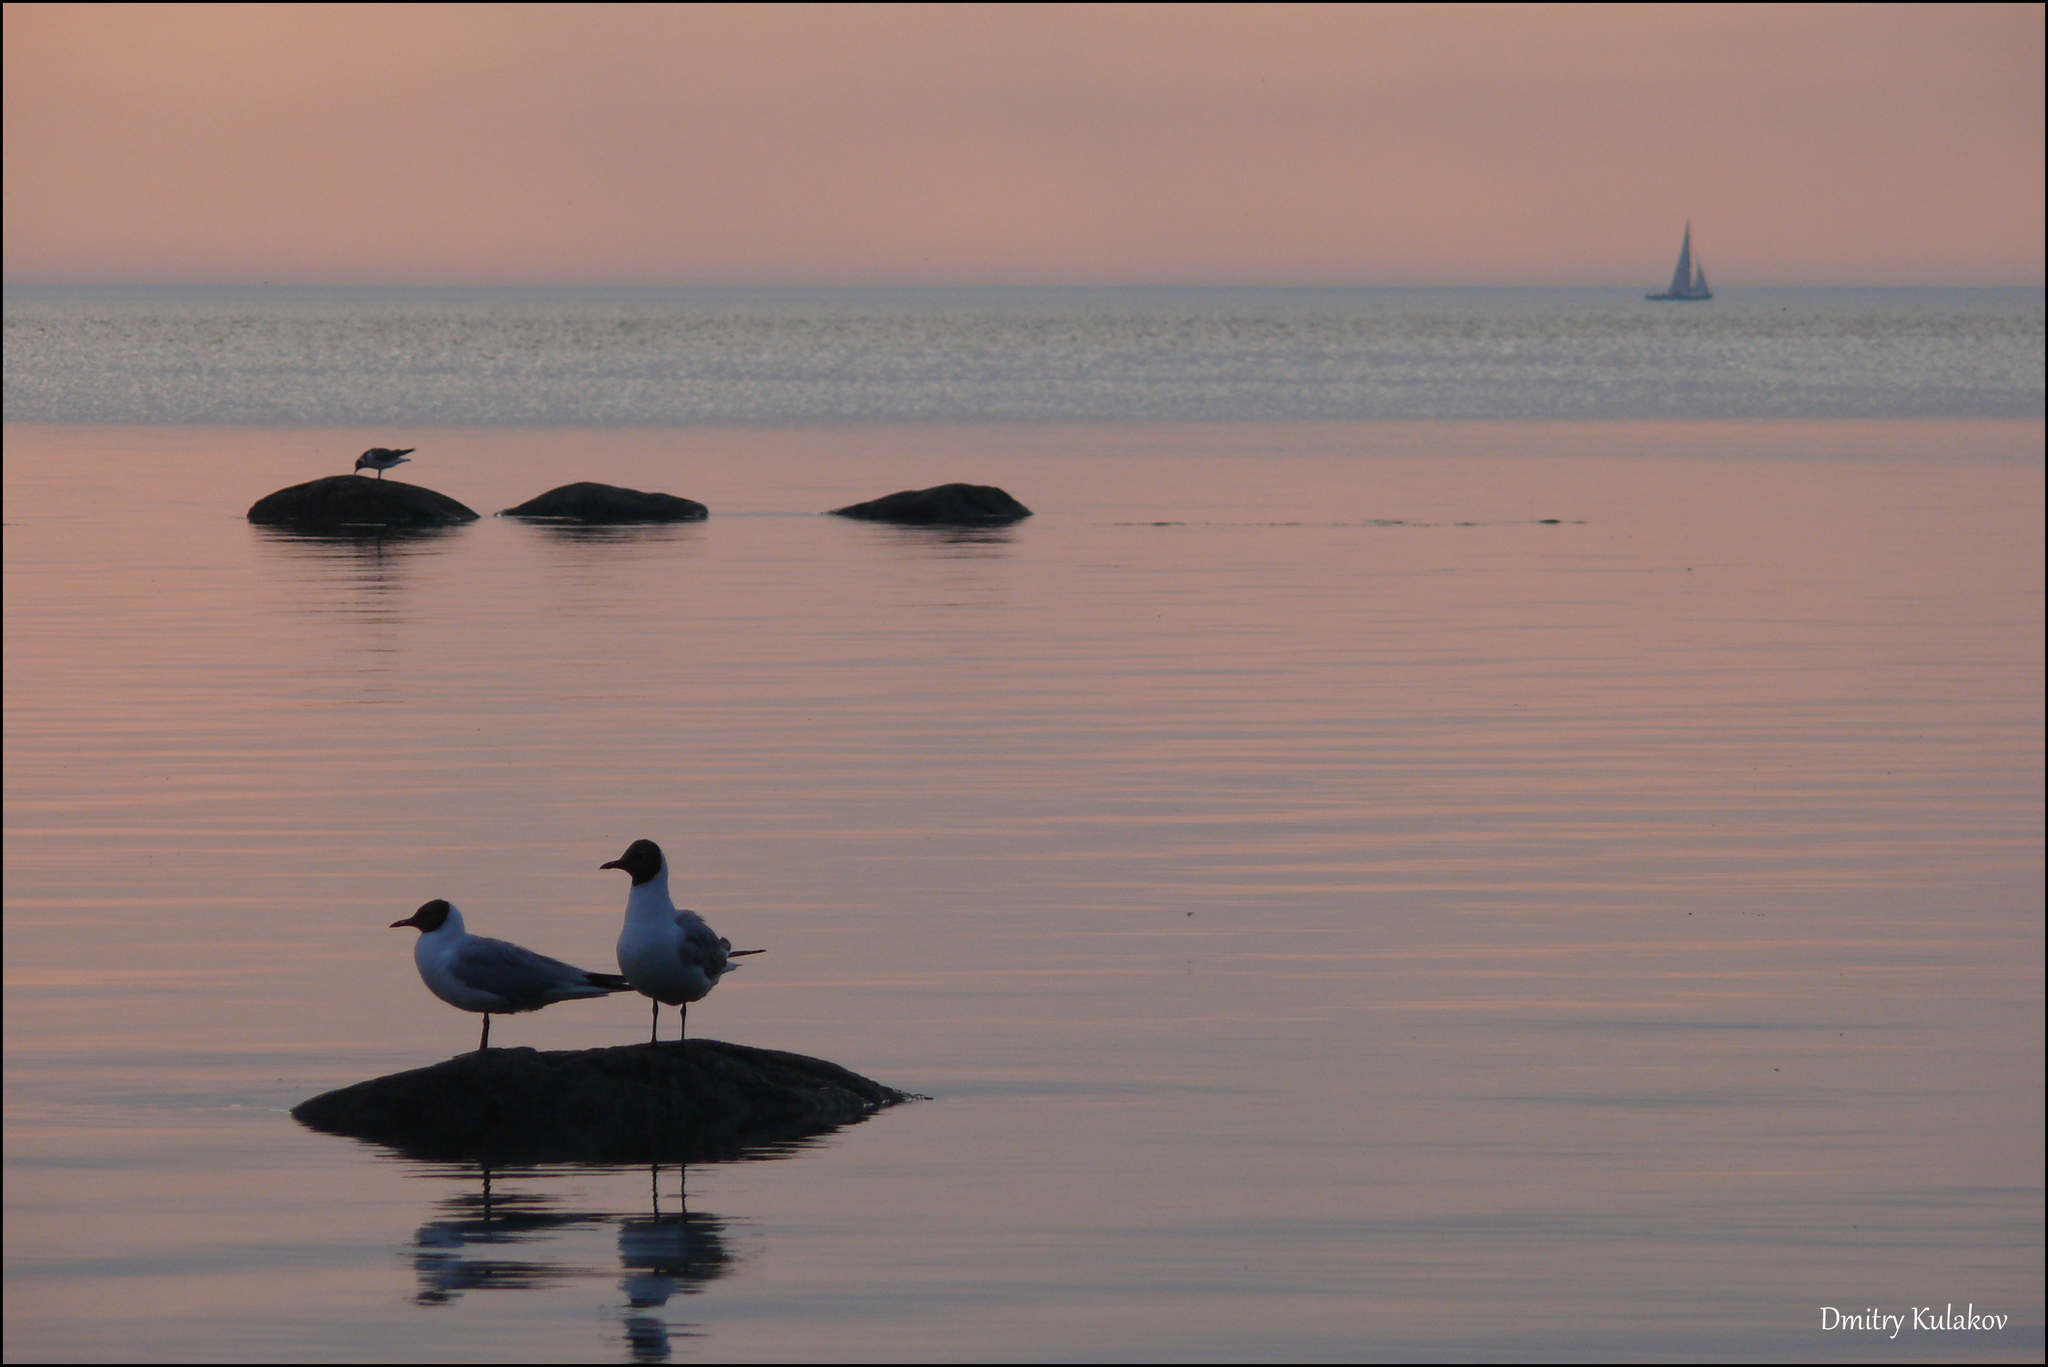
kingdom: Animalia
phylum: Chordata
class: Aves
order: Charadriiformes
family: Laridae
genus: Chroicocephalus
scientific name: Chroicocephalus ridibundus
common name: Black-headed gull
